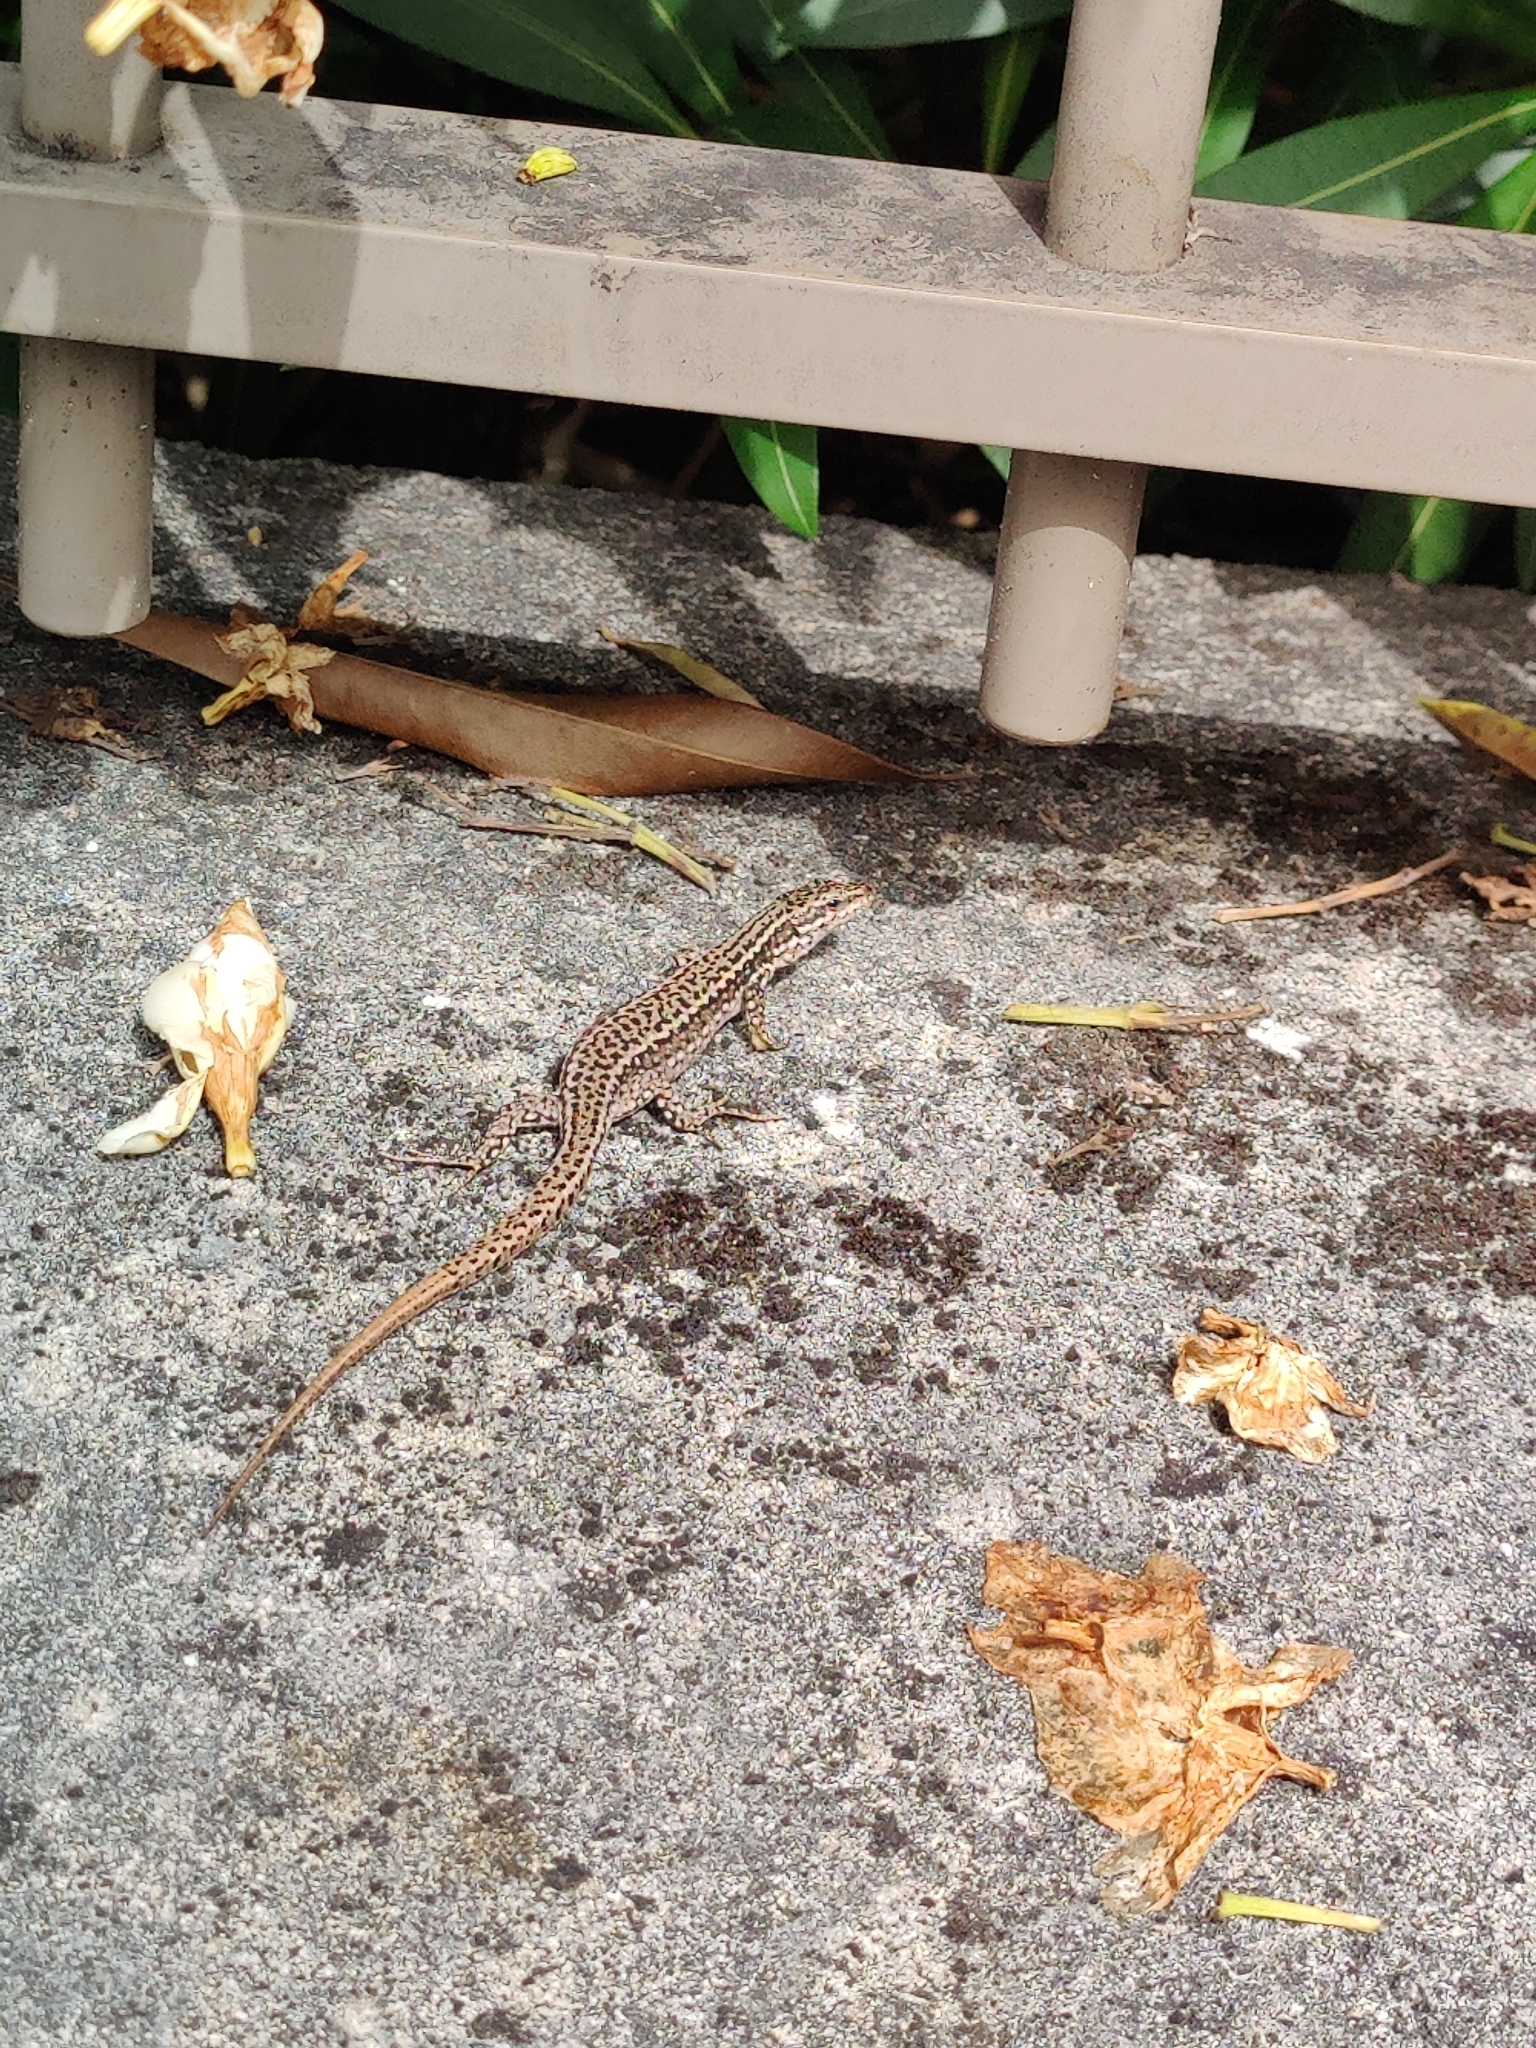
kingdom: Animalia
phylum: Chordata
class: Squamata
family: Lacertidae
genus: Podarcis
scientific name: Podarcis muralis
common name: Common wall lizard
